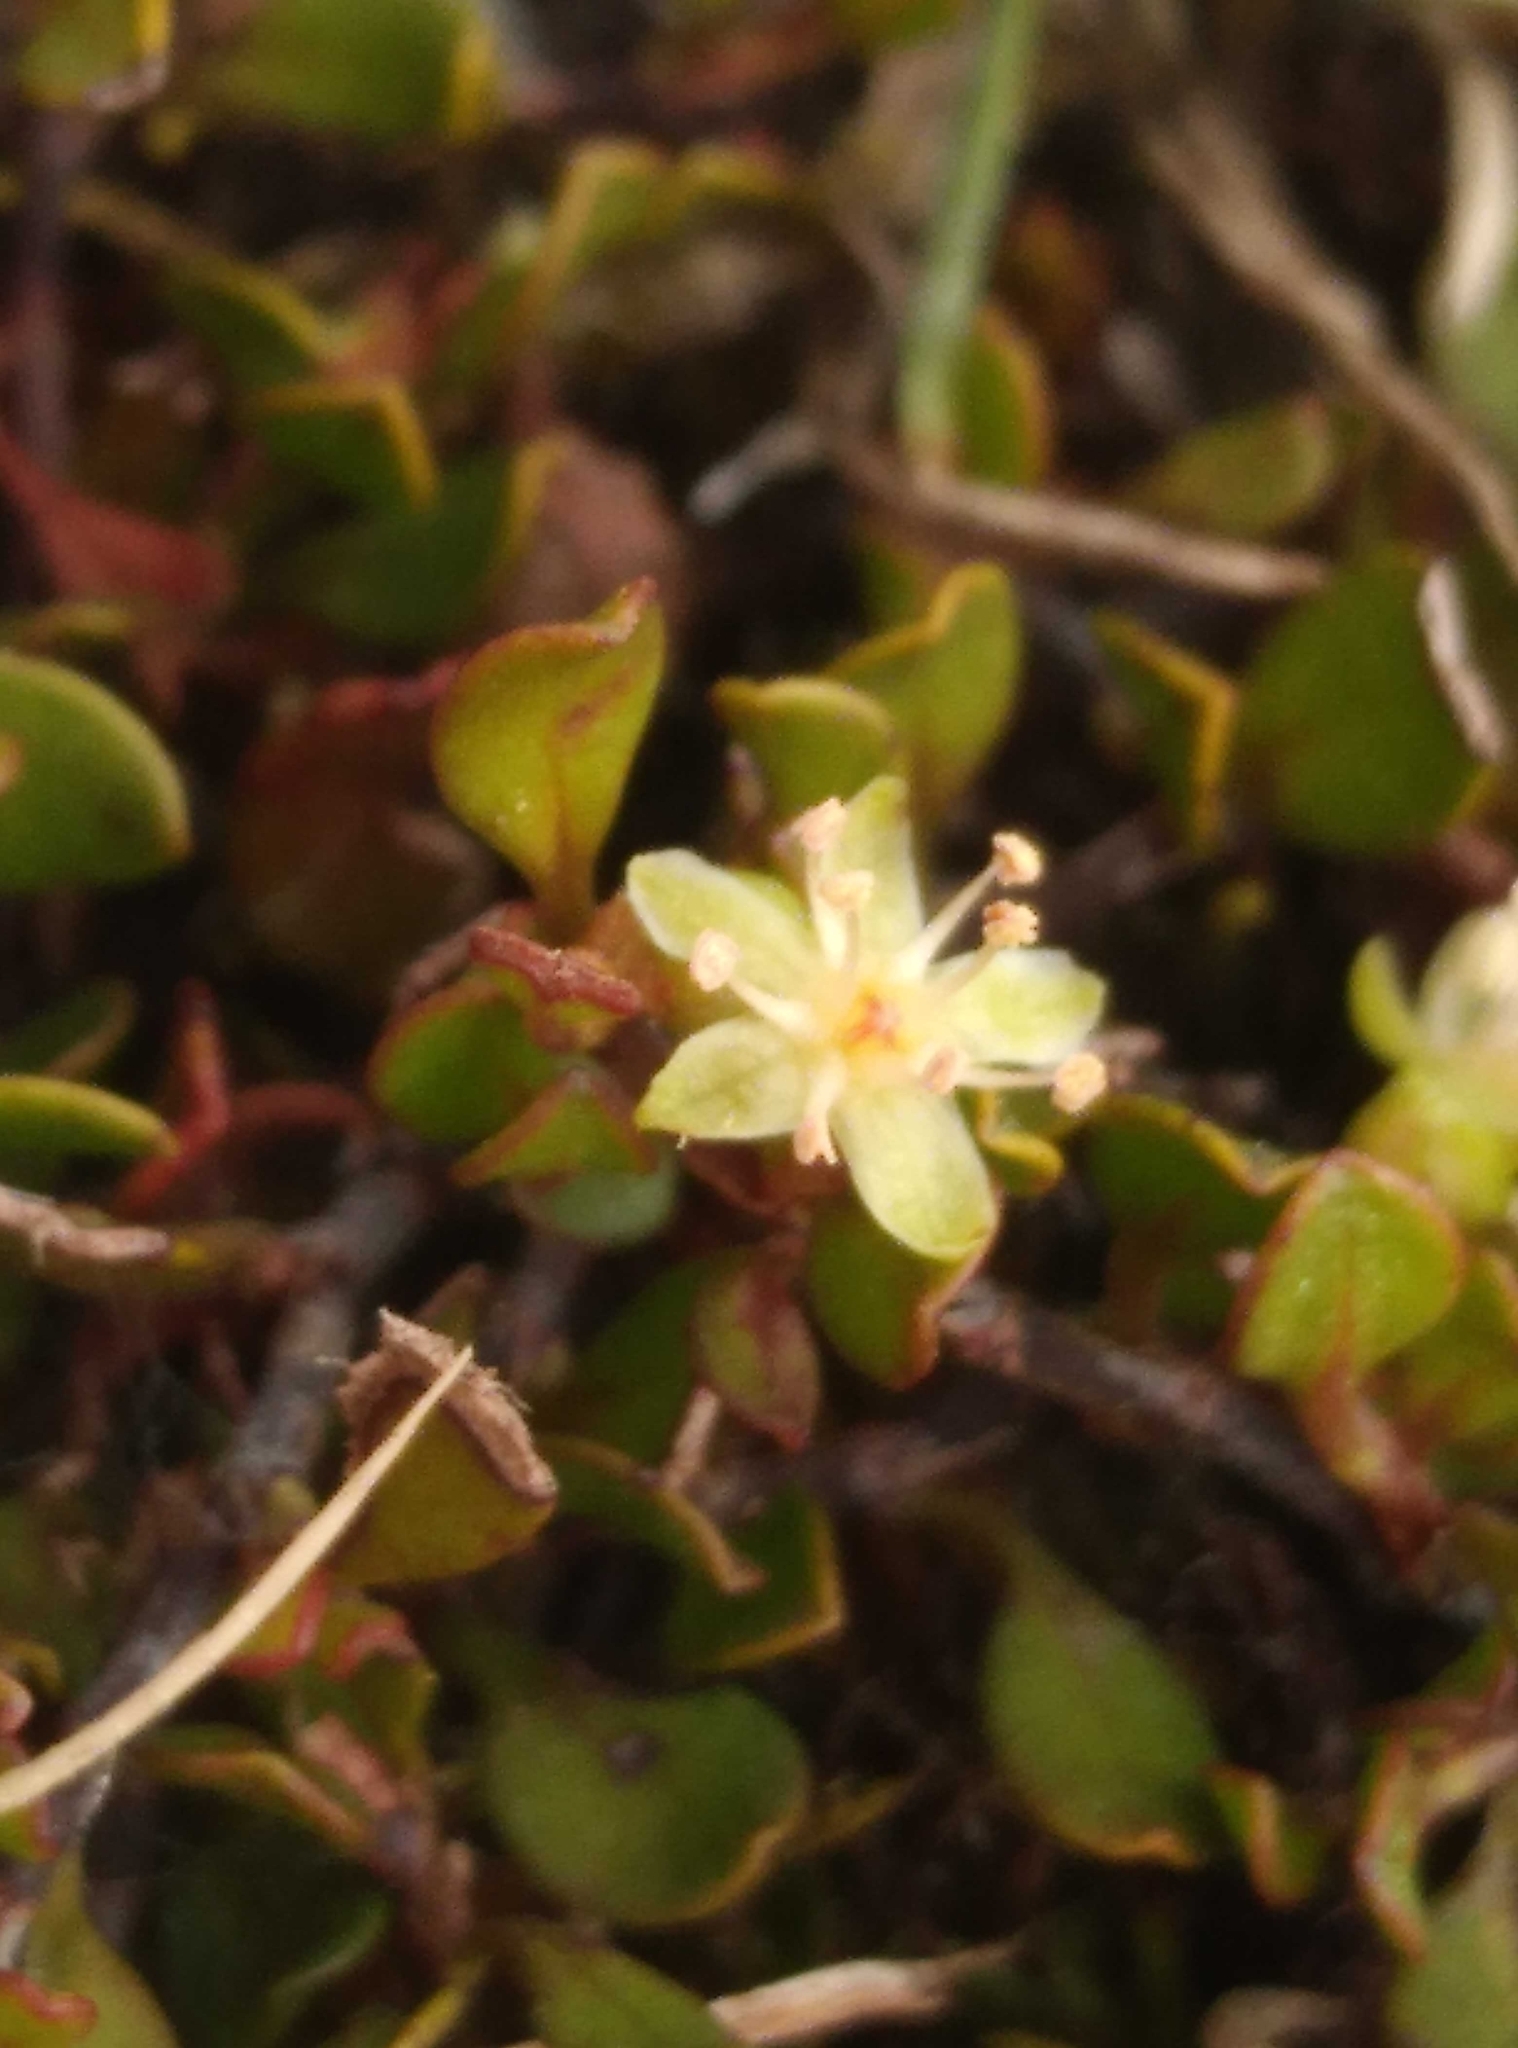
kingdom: Plantae
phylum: Tracheophyta
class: Magnoliopsida
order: Caryophyllales
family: Polygonaceae
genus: Muehlenbeckia
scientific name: Muehlenbeckia axillaris
